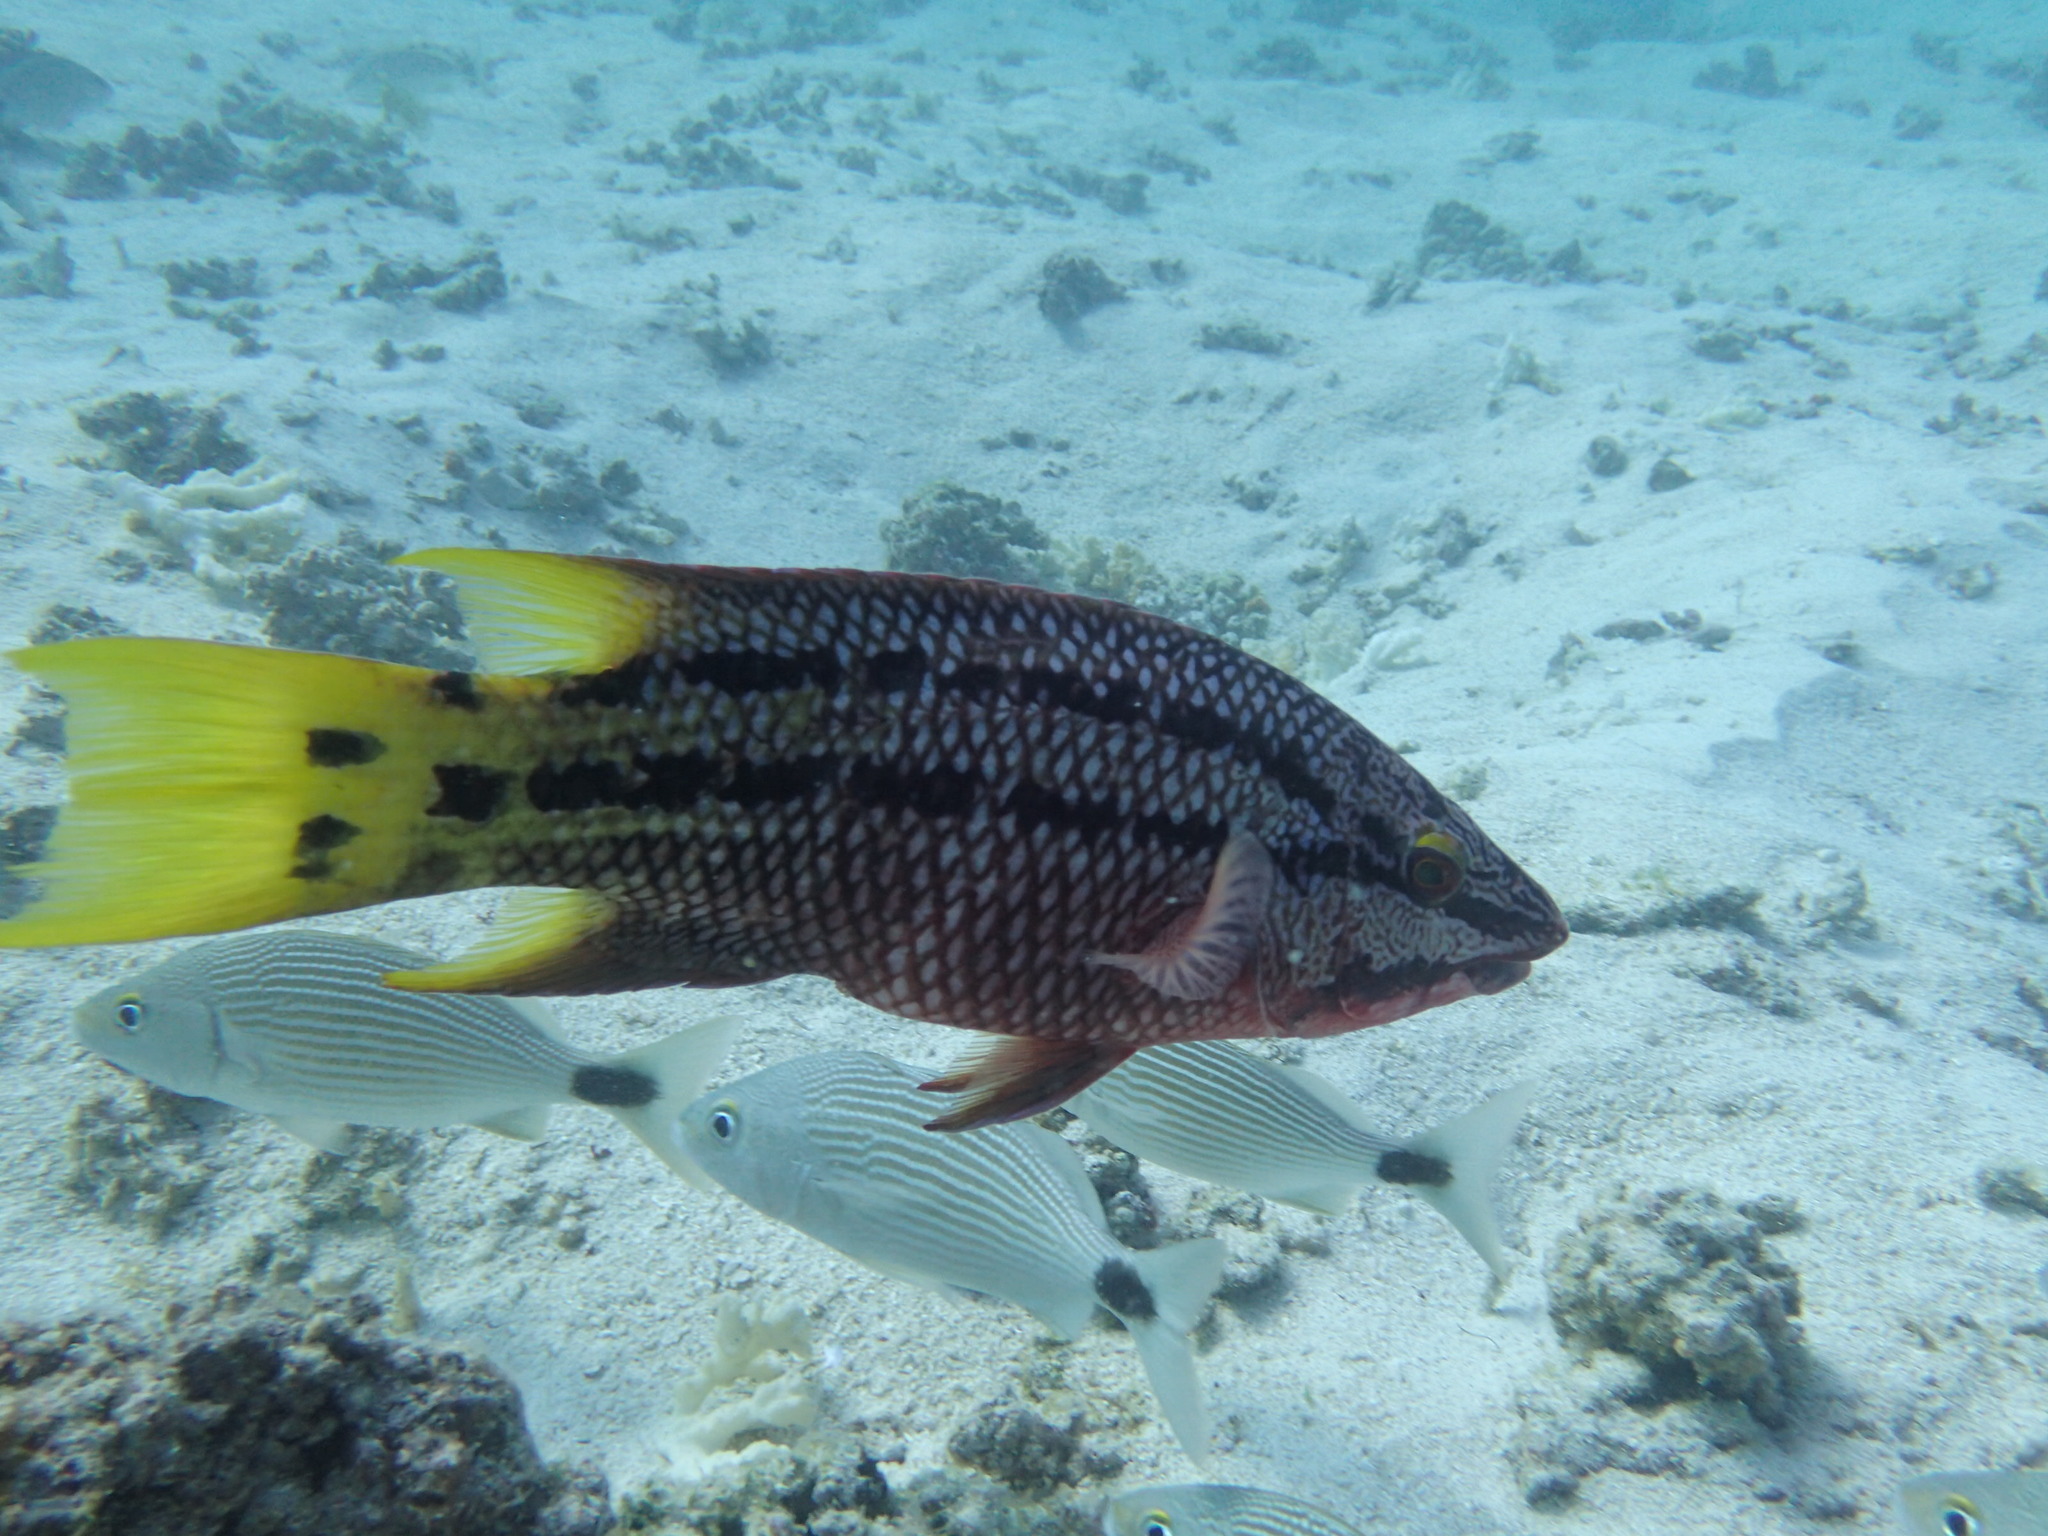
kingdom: Animalia
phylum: Chordata
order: Perciformes
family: Labridae
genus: Bodianus
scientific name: Bodianus diplotaenia
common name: Mexican hogfish
